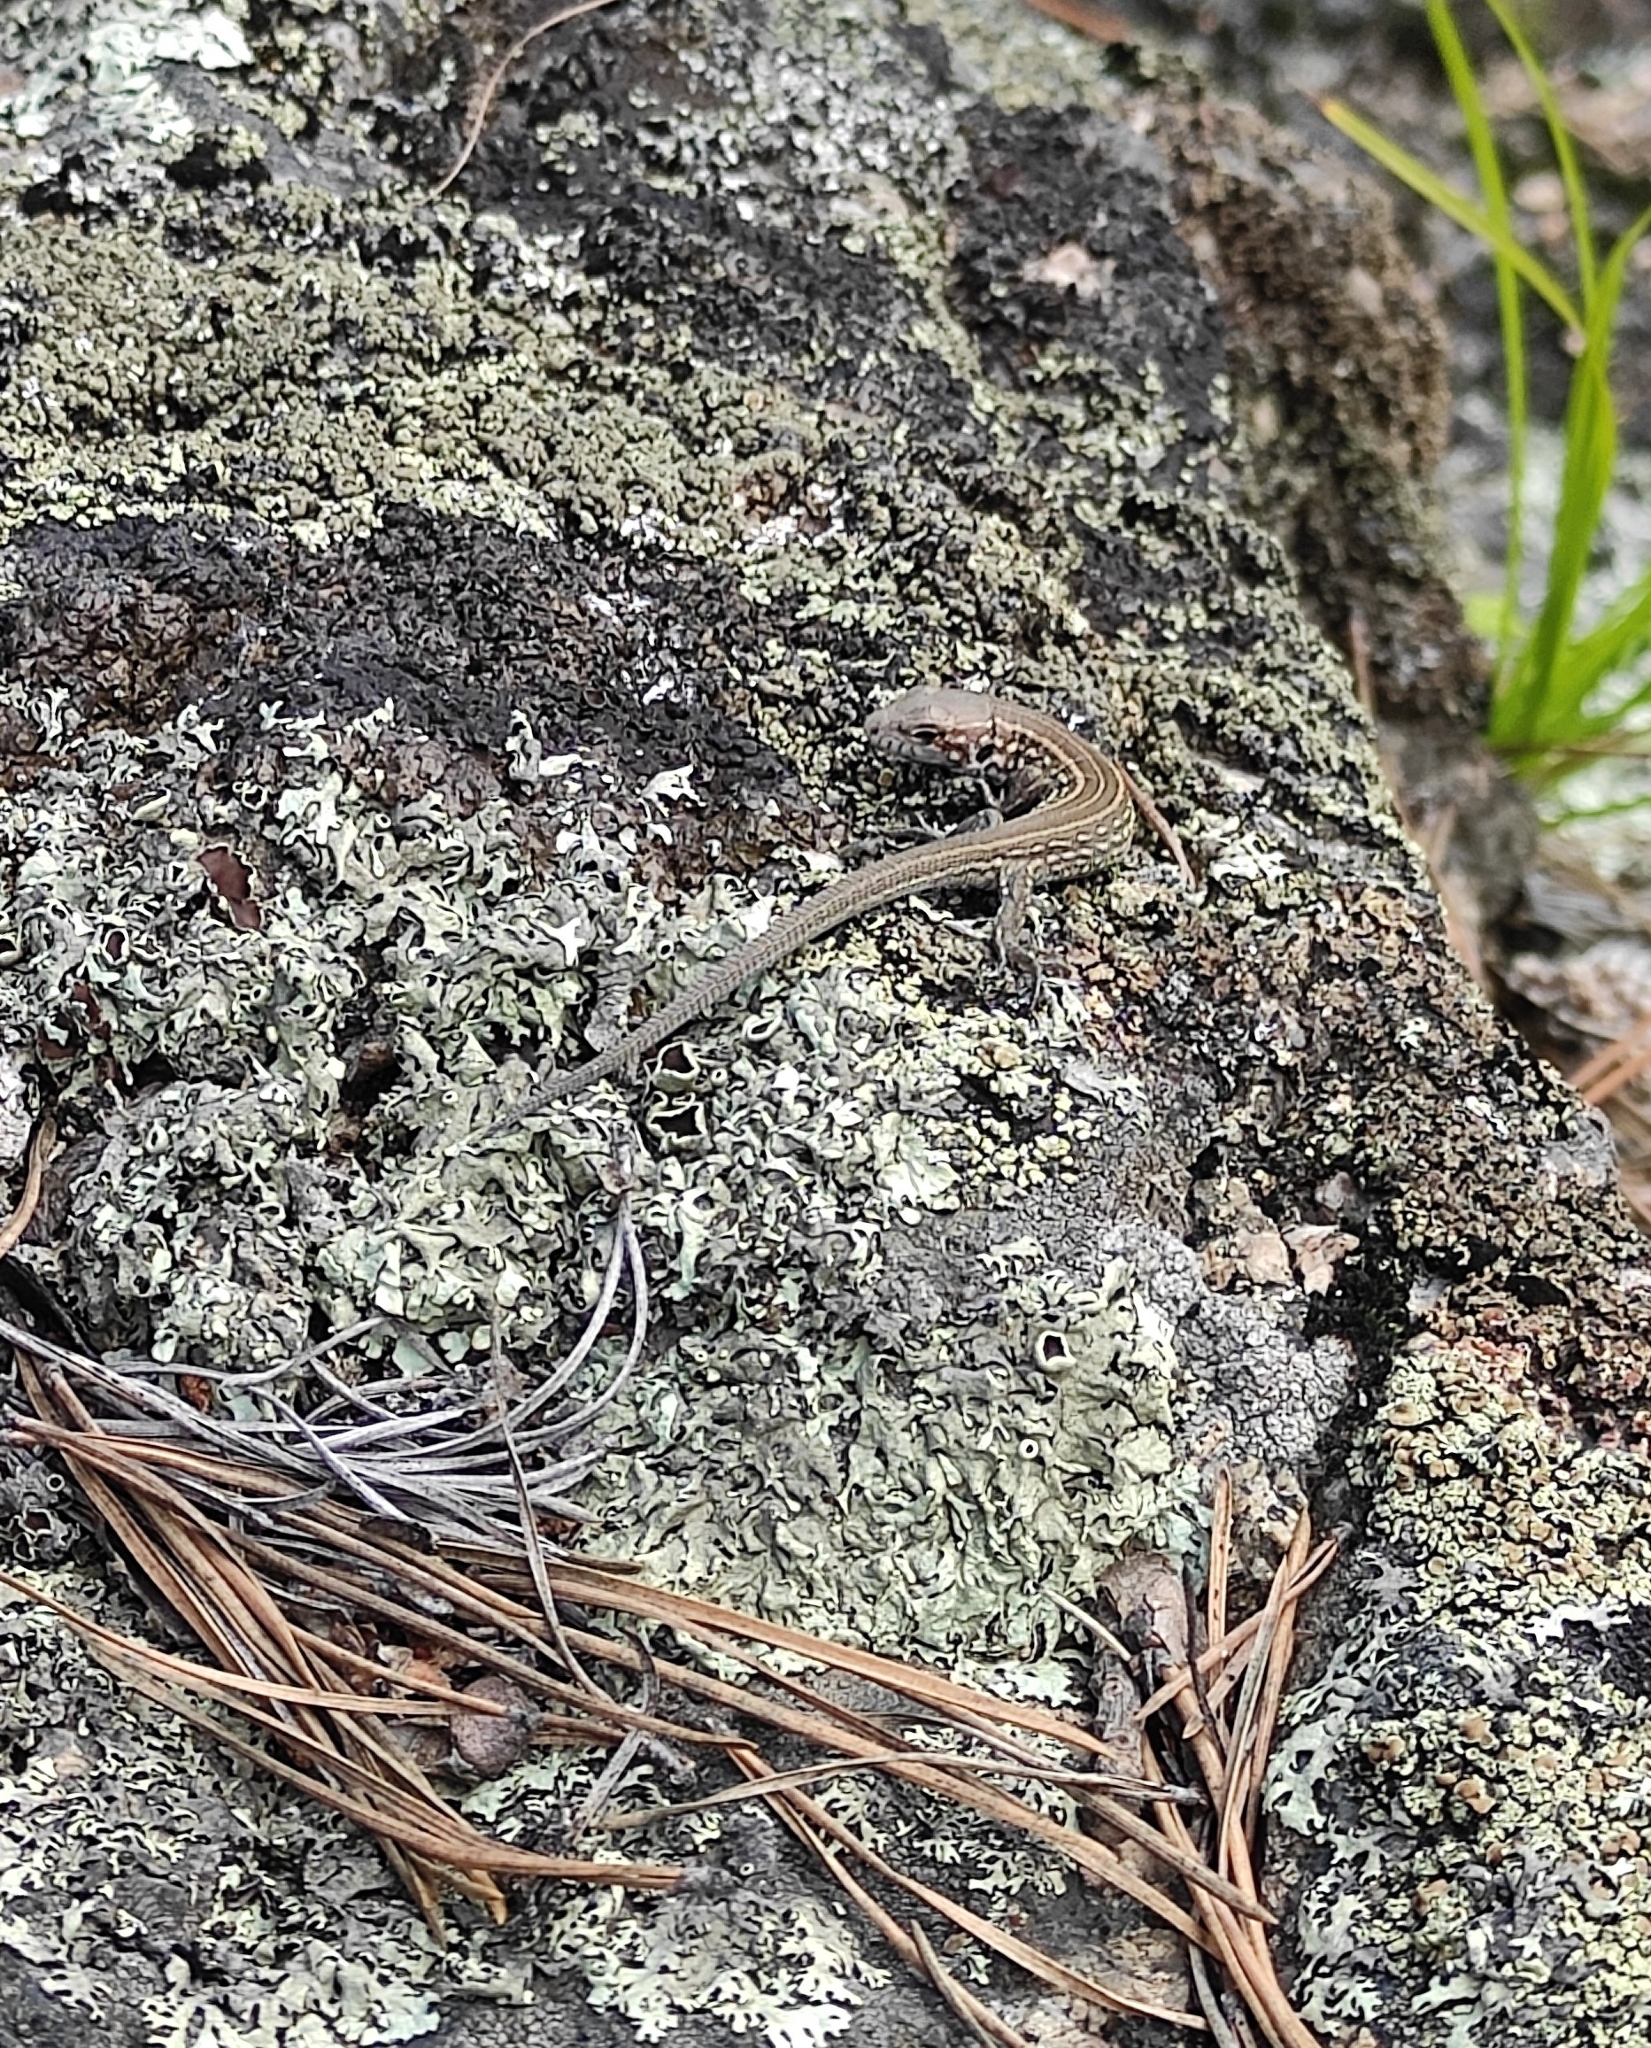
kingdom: Animalia
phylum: Chordata
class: Squamata
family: Lacertidae
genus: Lacerta
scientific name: Lacerta agilis
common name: Sand lizard
